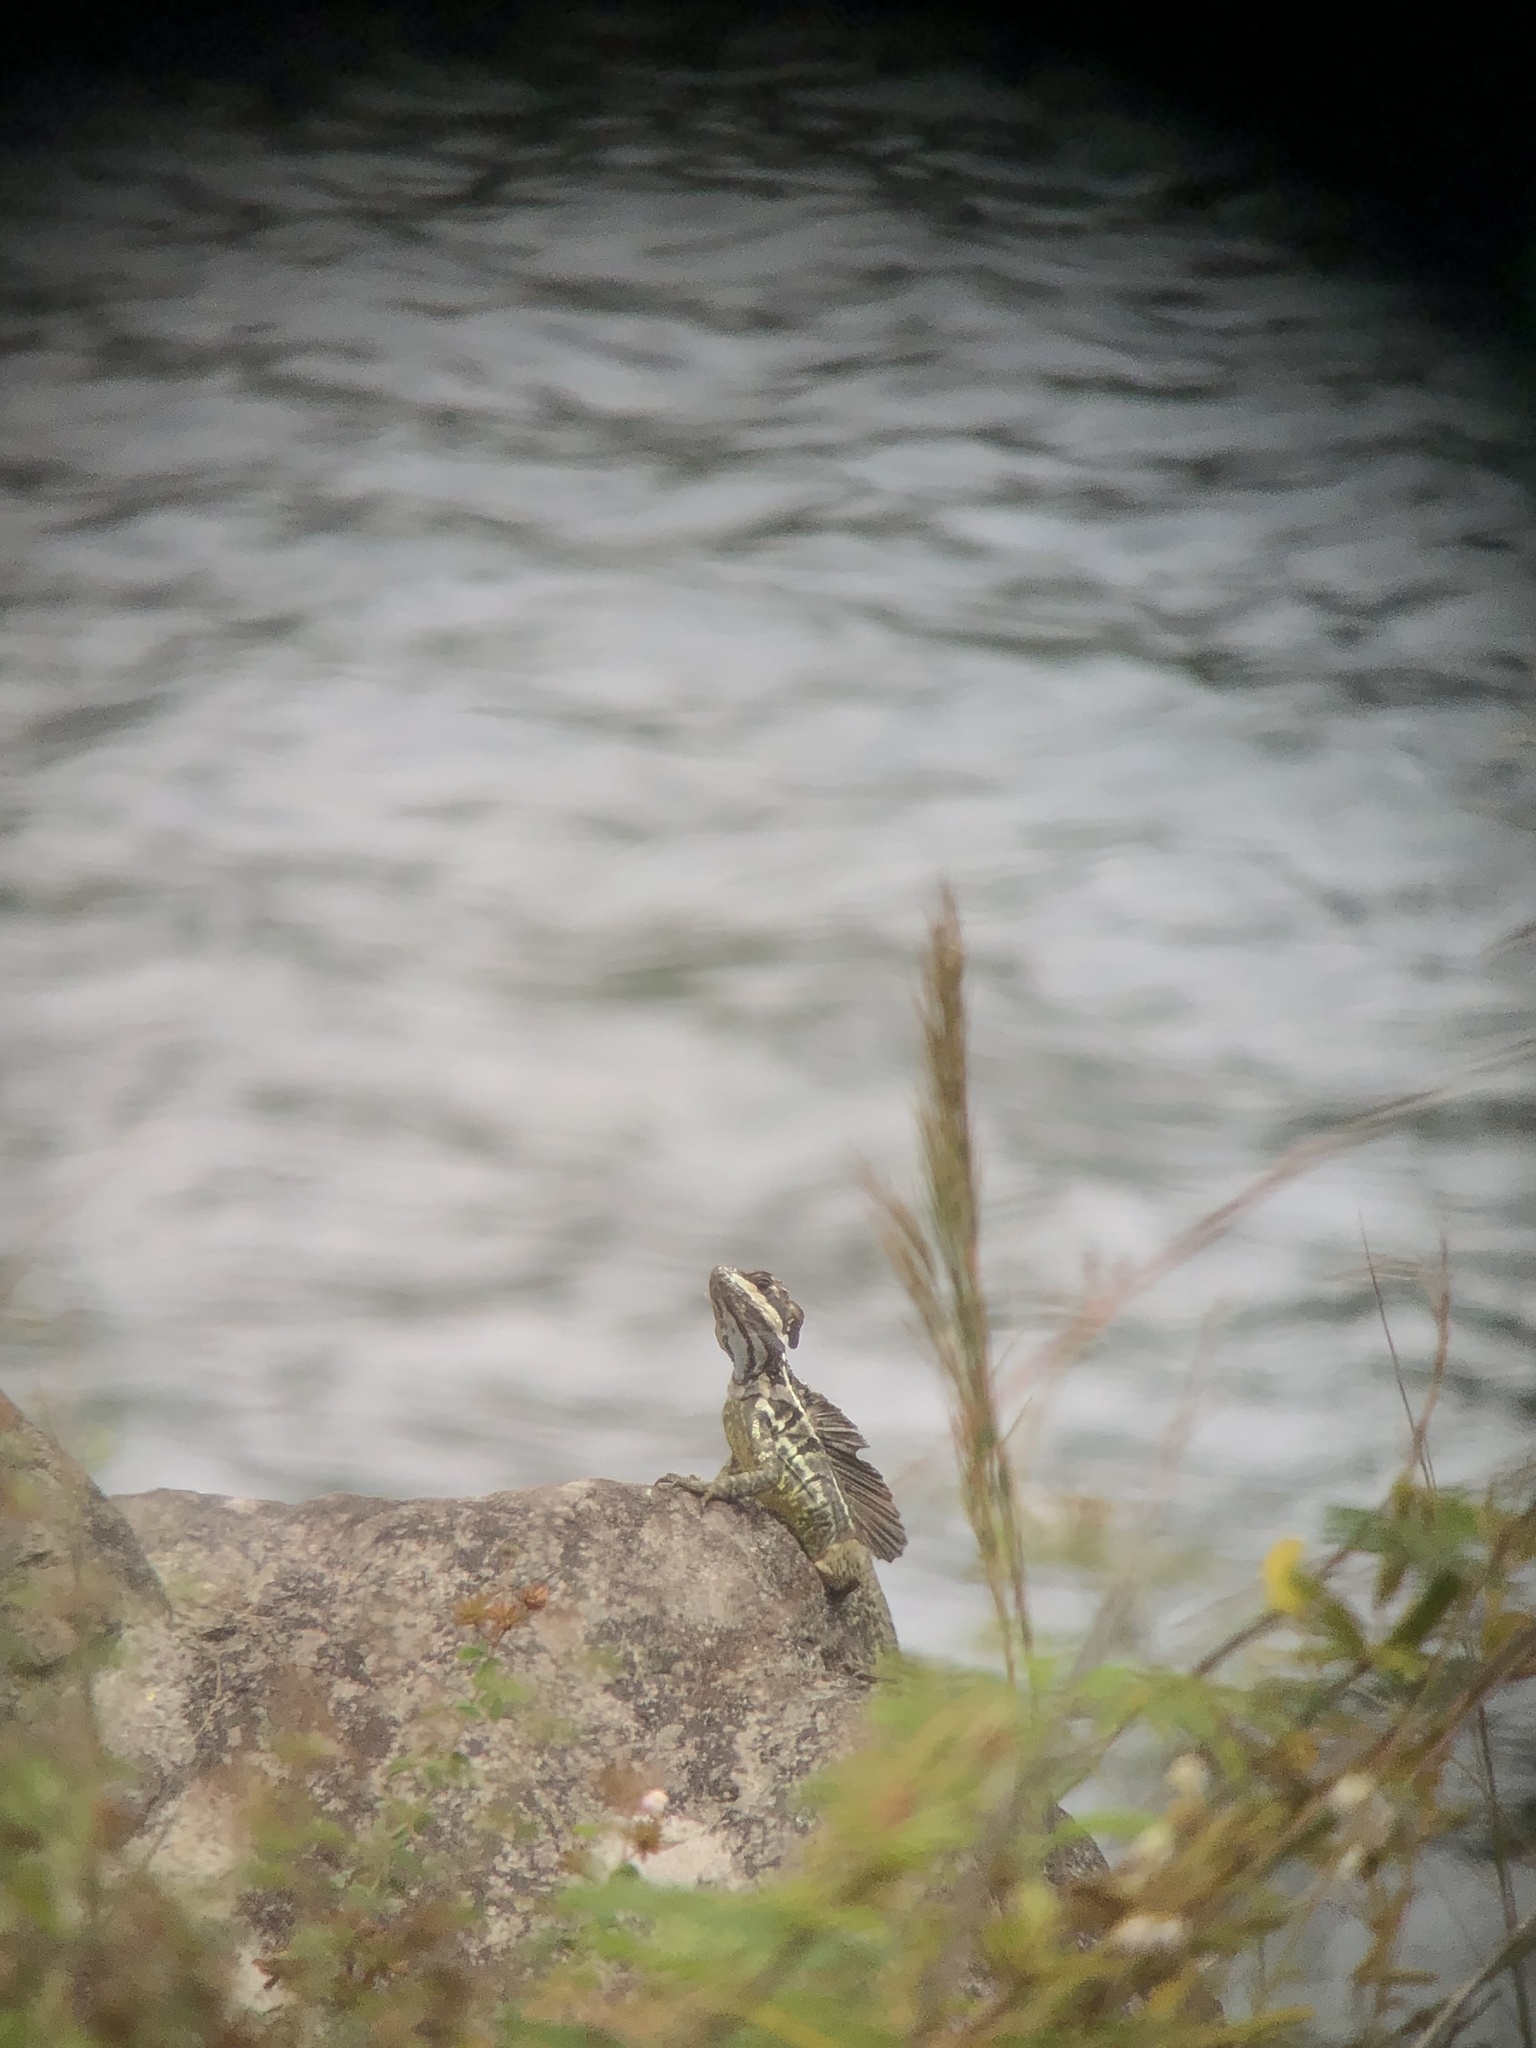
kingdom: Animalia
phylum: Chordata
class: Squamata
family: Corytophanidae
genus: Basiliscus
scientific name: Basiliscus basiliscus
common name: Common basilisk
